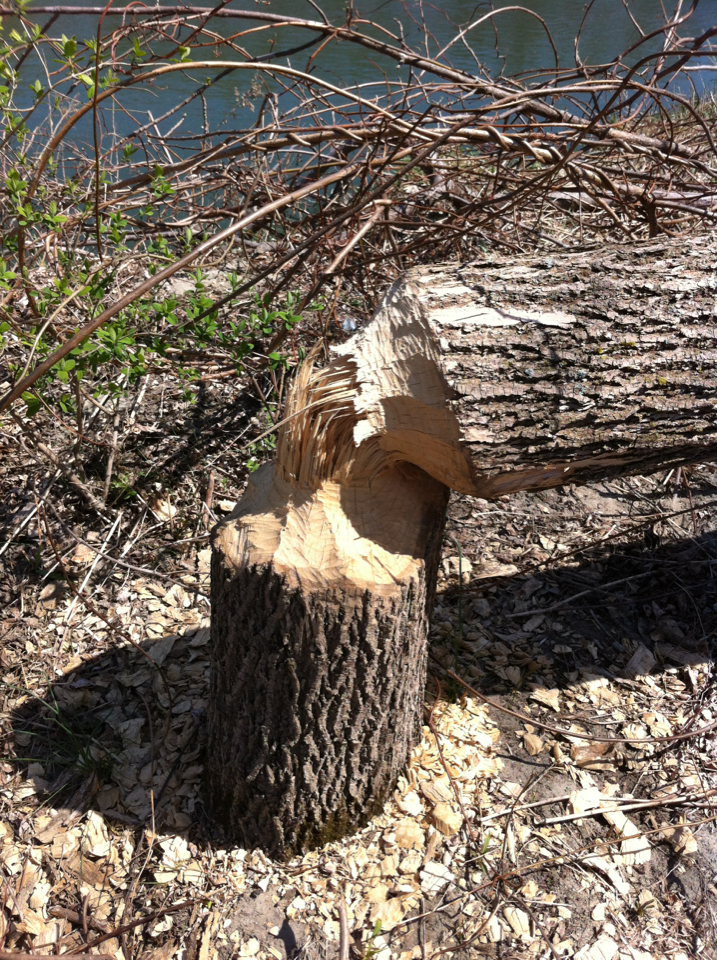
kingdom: Animalia
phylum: Chordata
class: Mammalia
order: Rodentia
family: Castoridae
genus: Castor
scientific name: Castor canadensis
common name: American beaver
